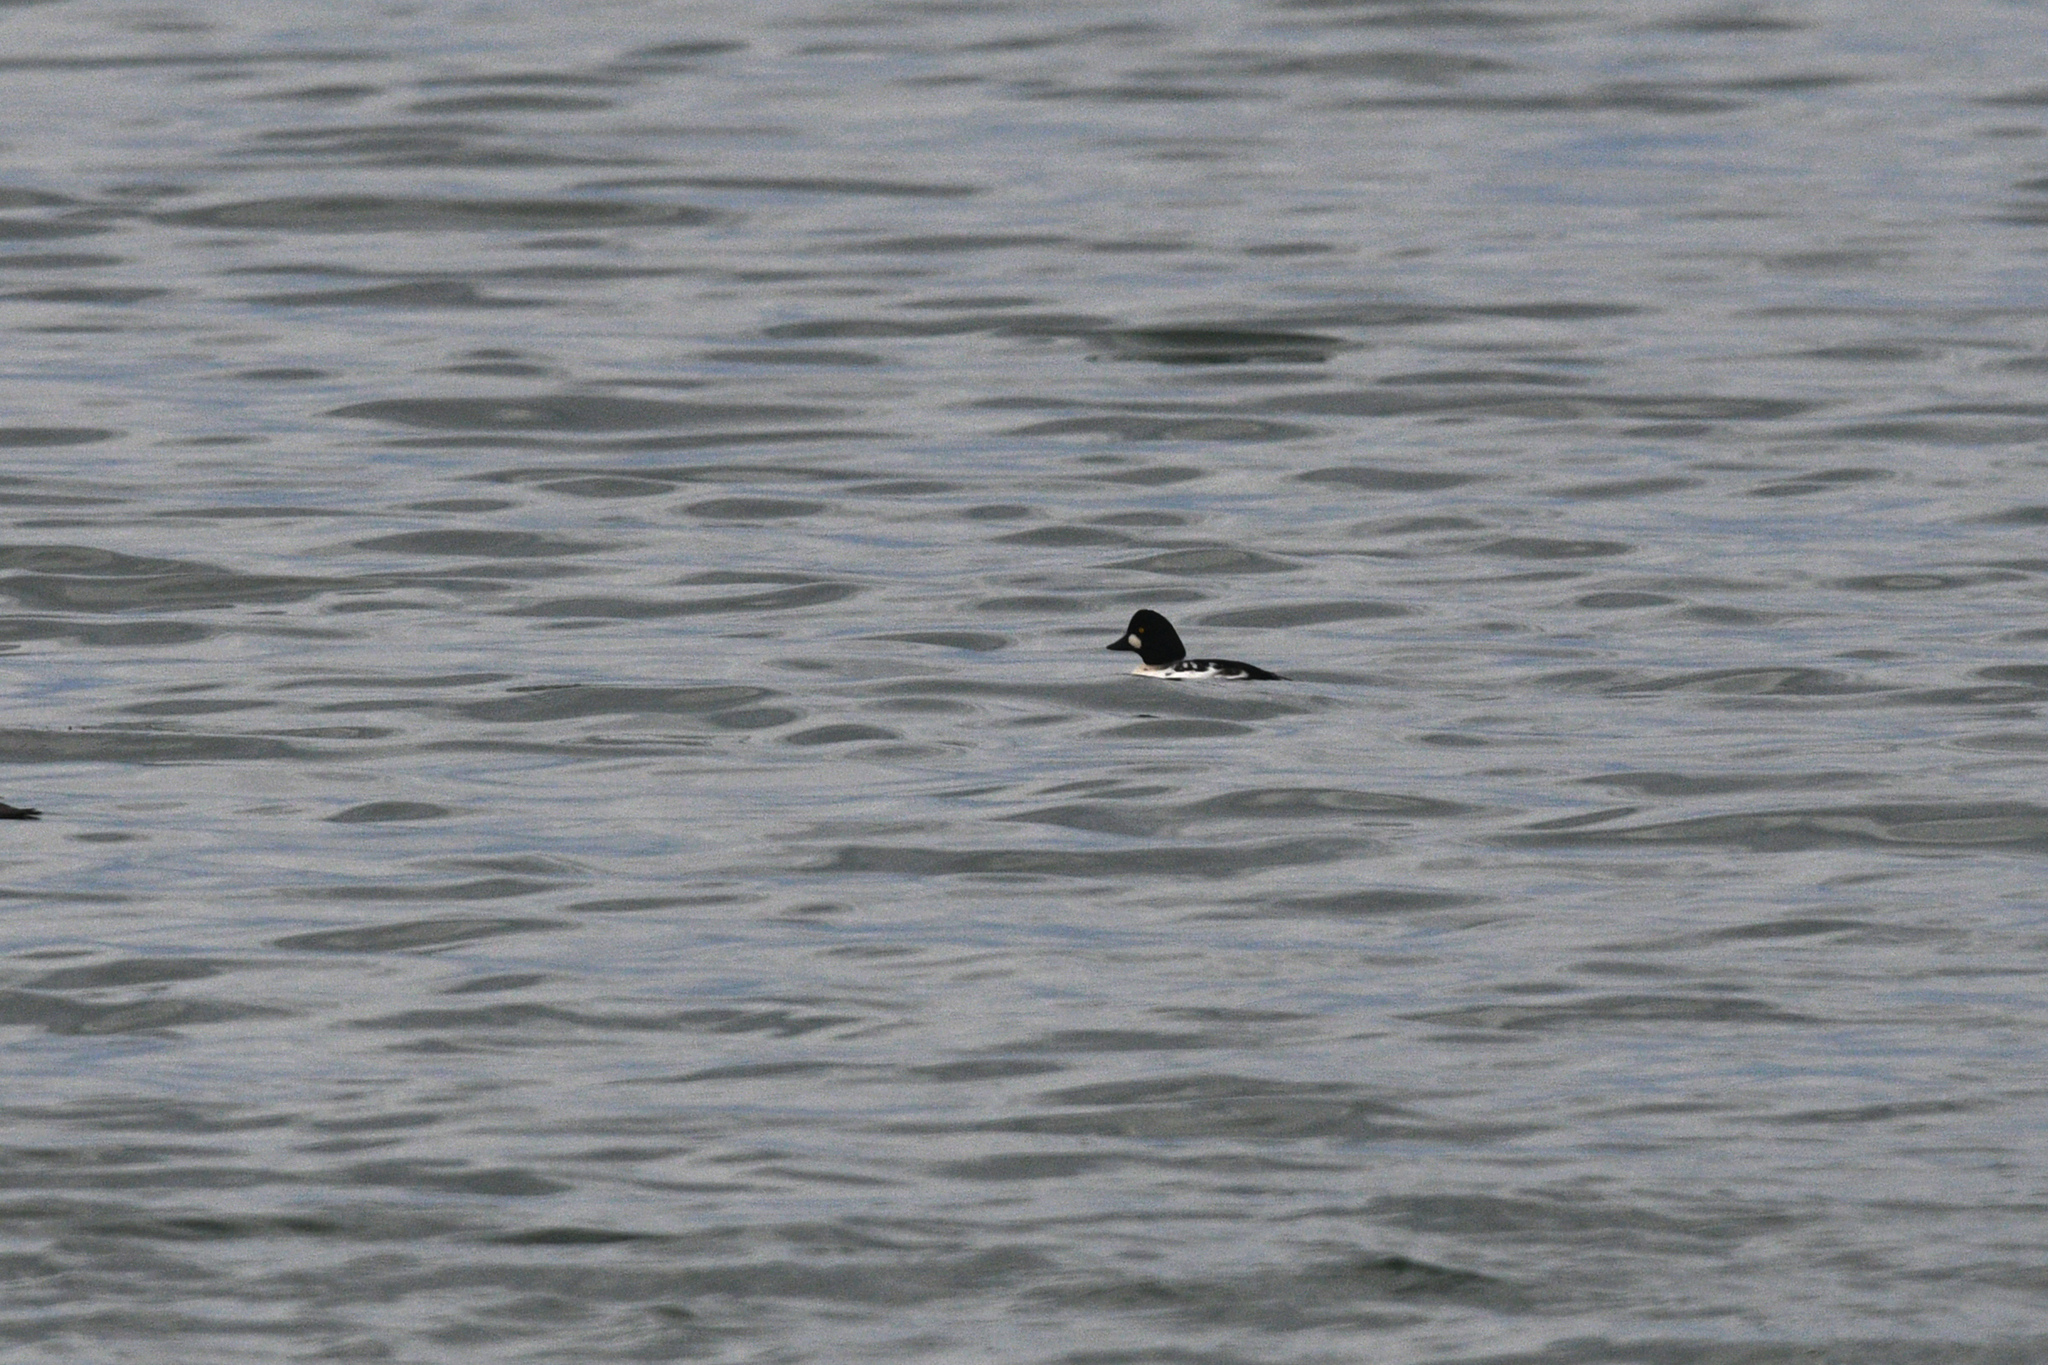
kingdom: Animalia
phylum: Chordata
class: Aves
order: Anseriformes
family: Anatidae
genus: Bucephala
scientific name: Bucephala clangula
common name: Common goldeneye
